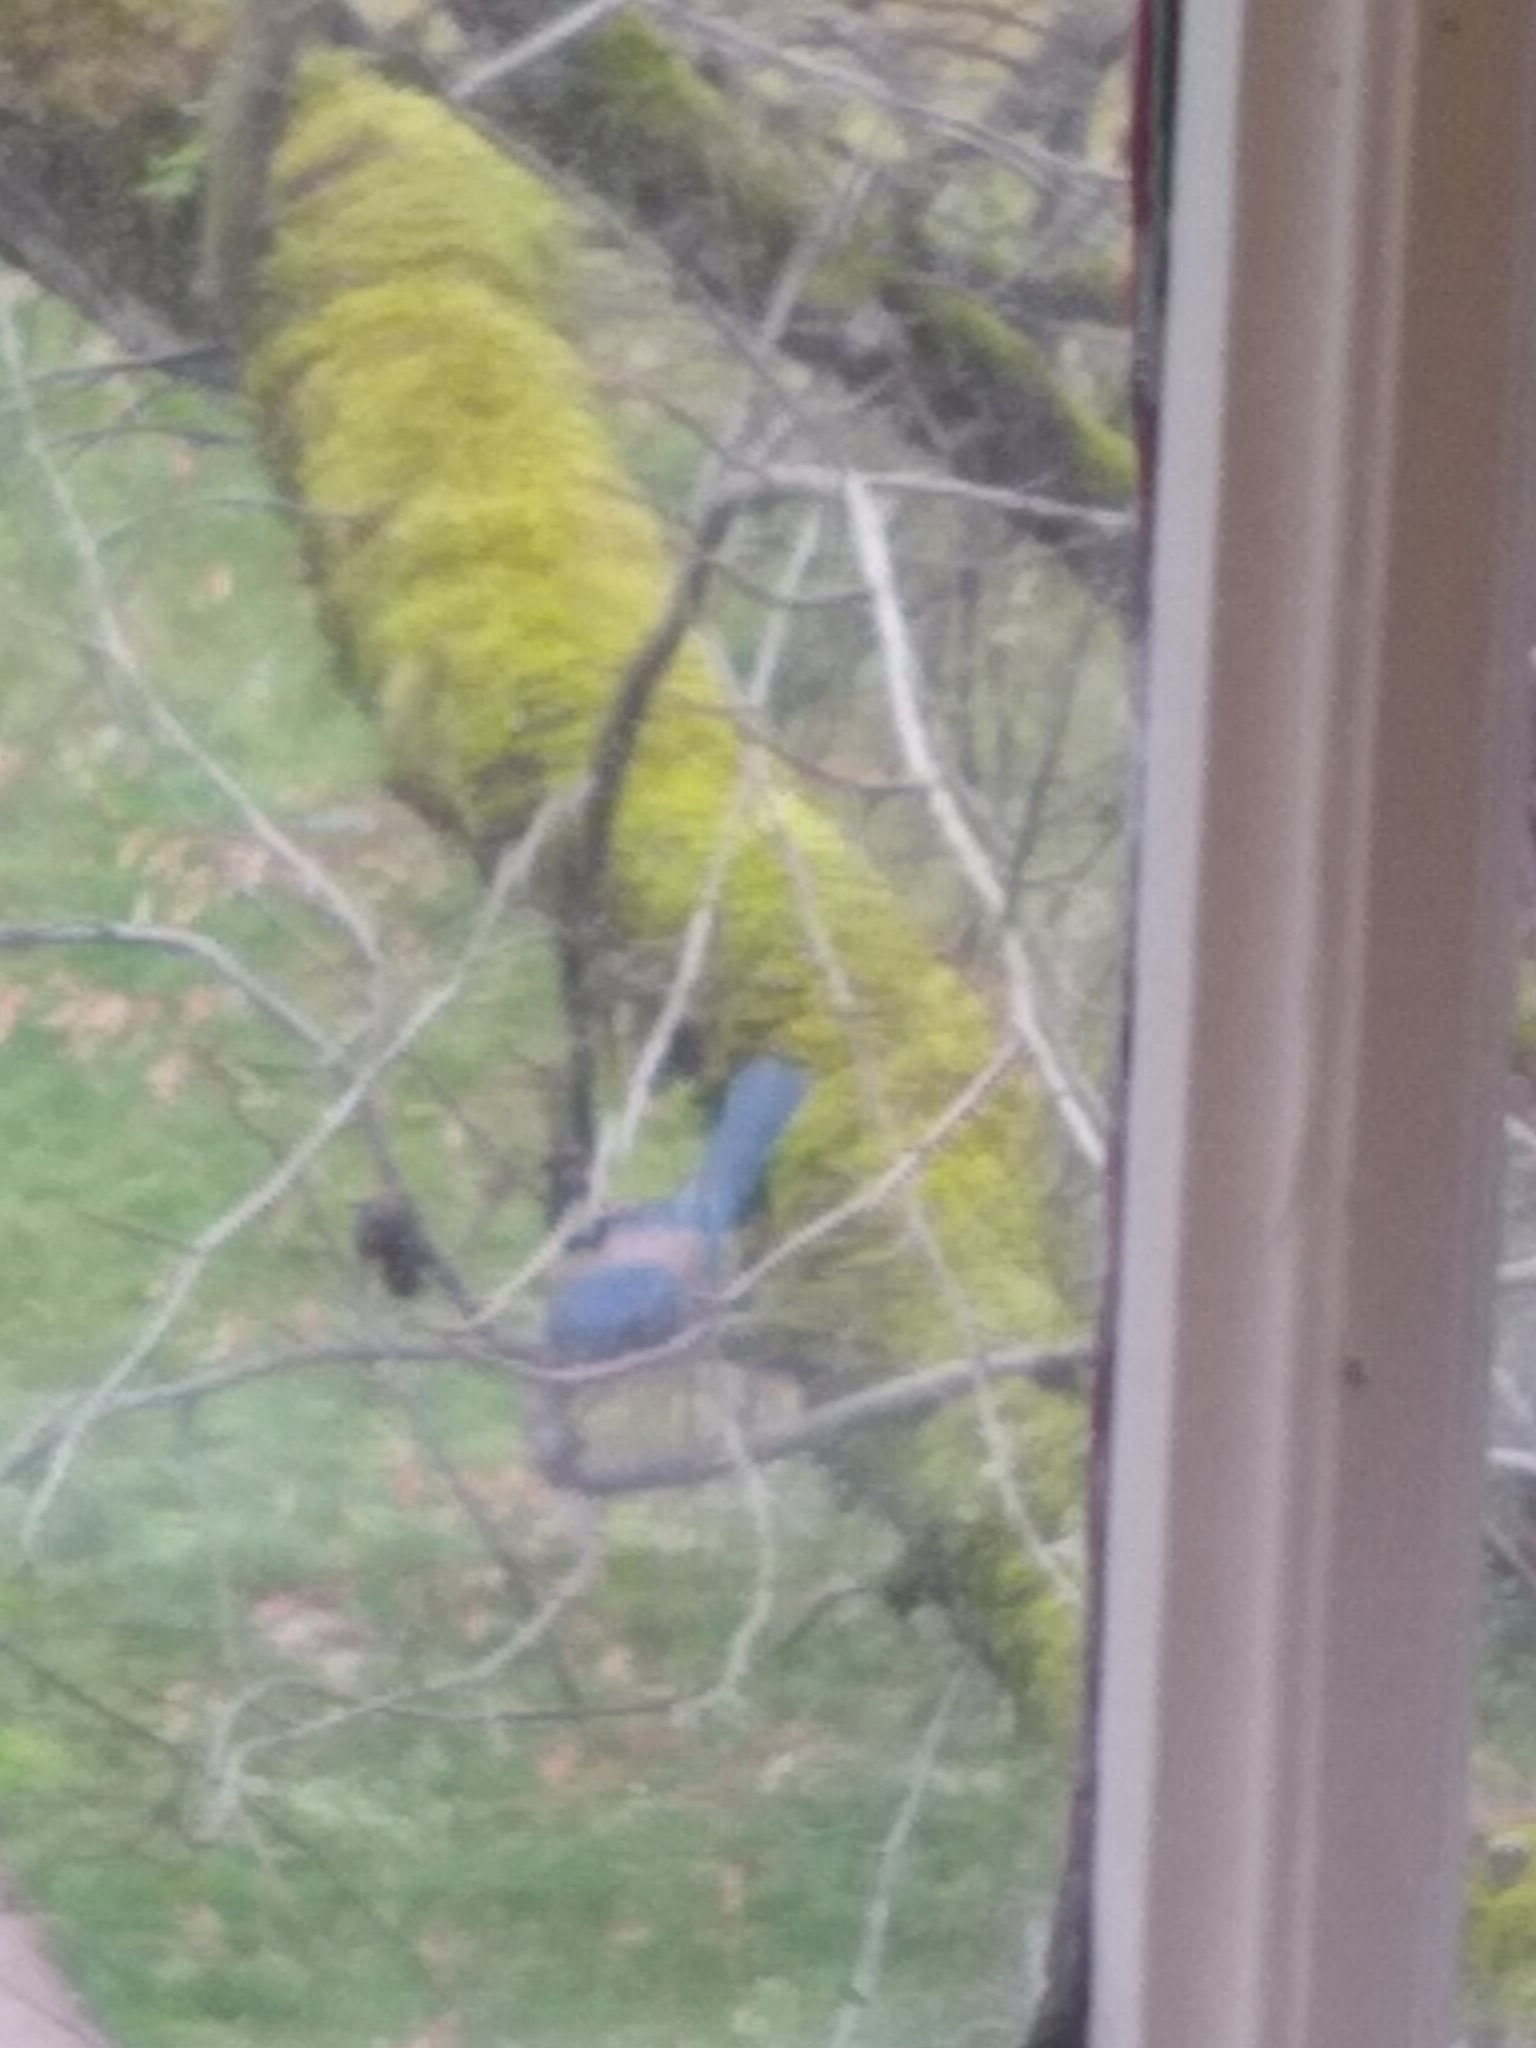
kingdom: Animalia
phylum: Chordata
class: Aves
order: Passeriformes
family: Corvidae
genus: Aphelocoma
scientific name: Aphelocoma californica
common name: California scrub-jay
